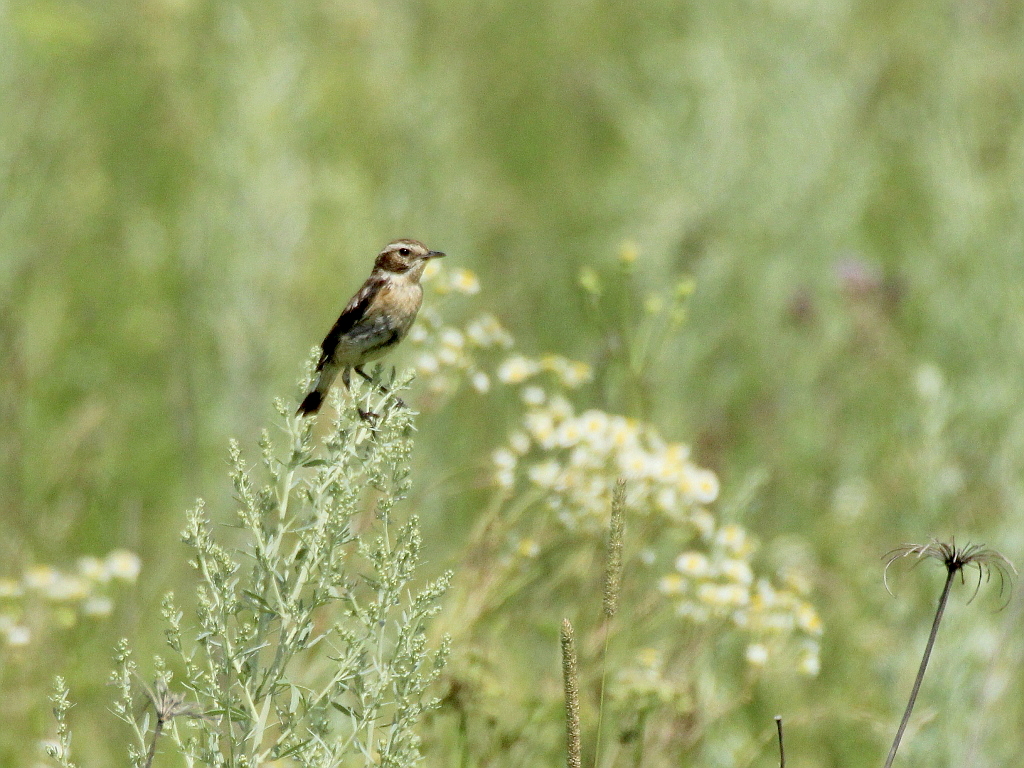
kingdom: Animalia
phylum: Chordata
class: Aves
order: Passeriformes
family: Muscicapidae
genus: Saxicola
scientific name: Saxicola rubetra
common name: Whinchat
